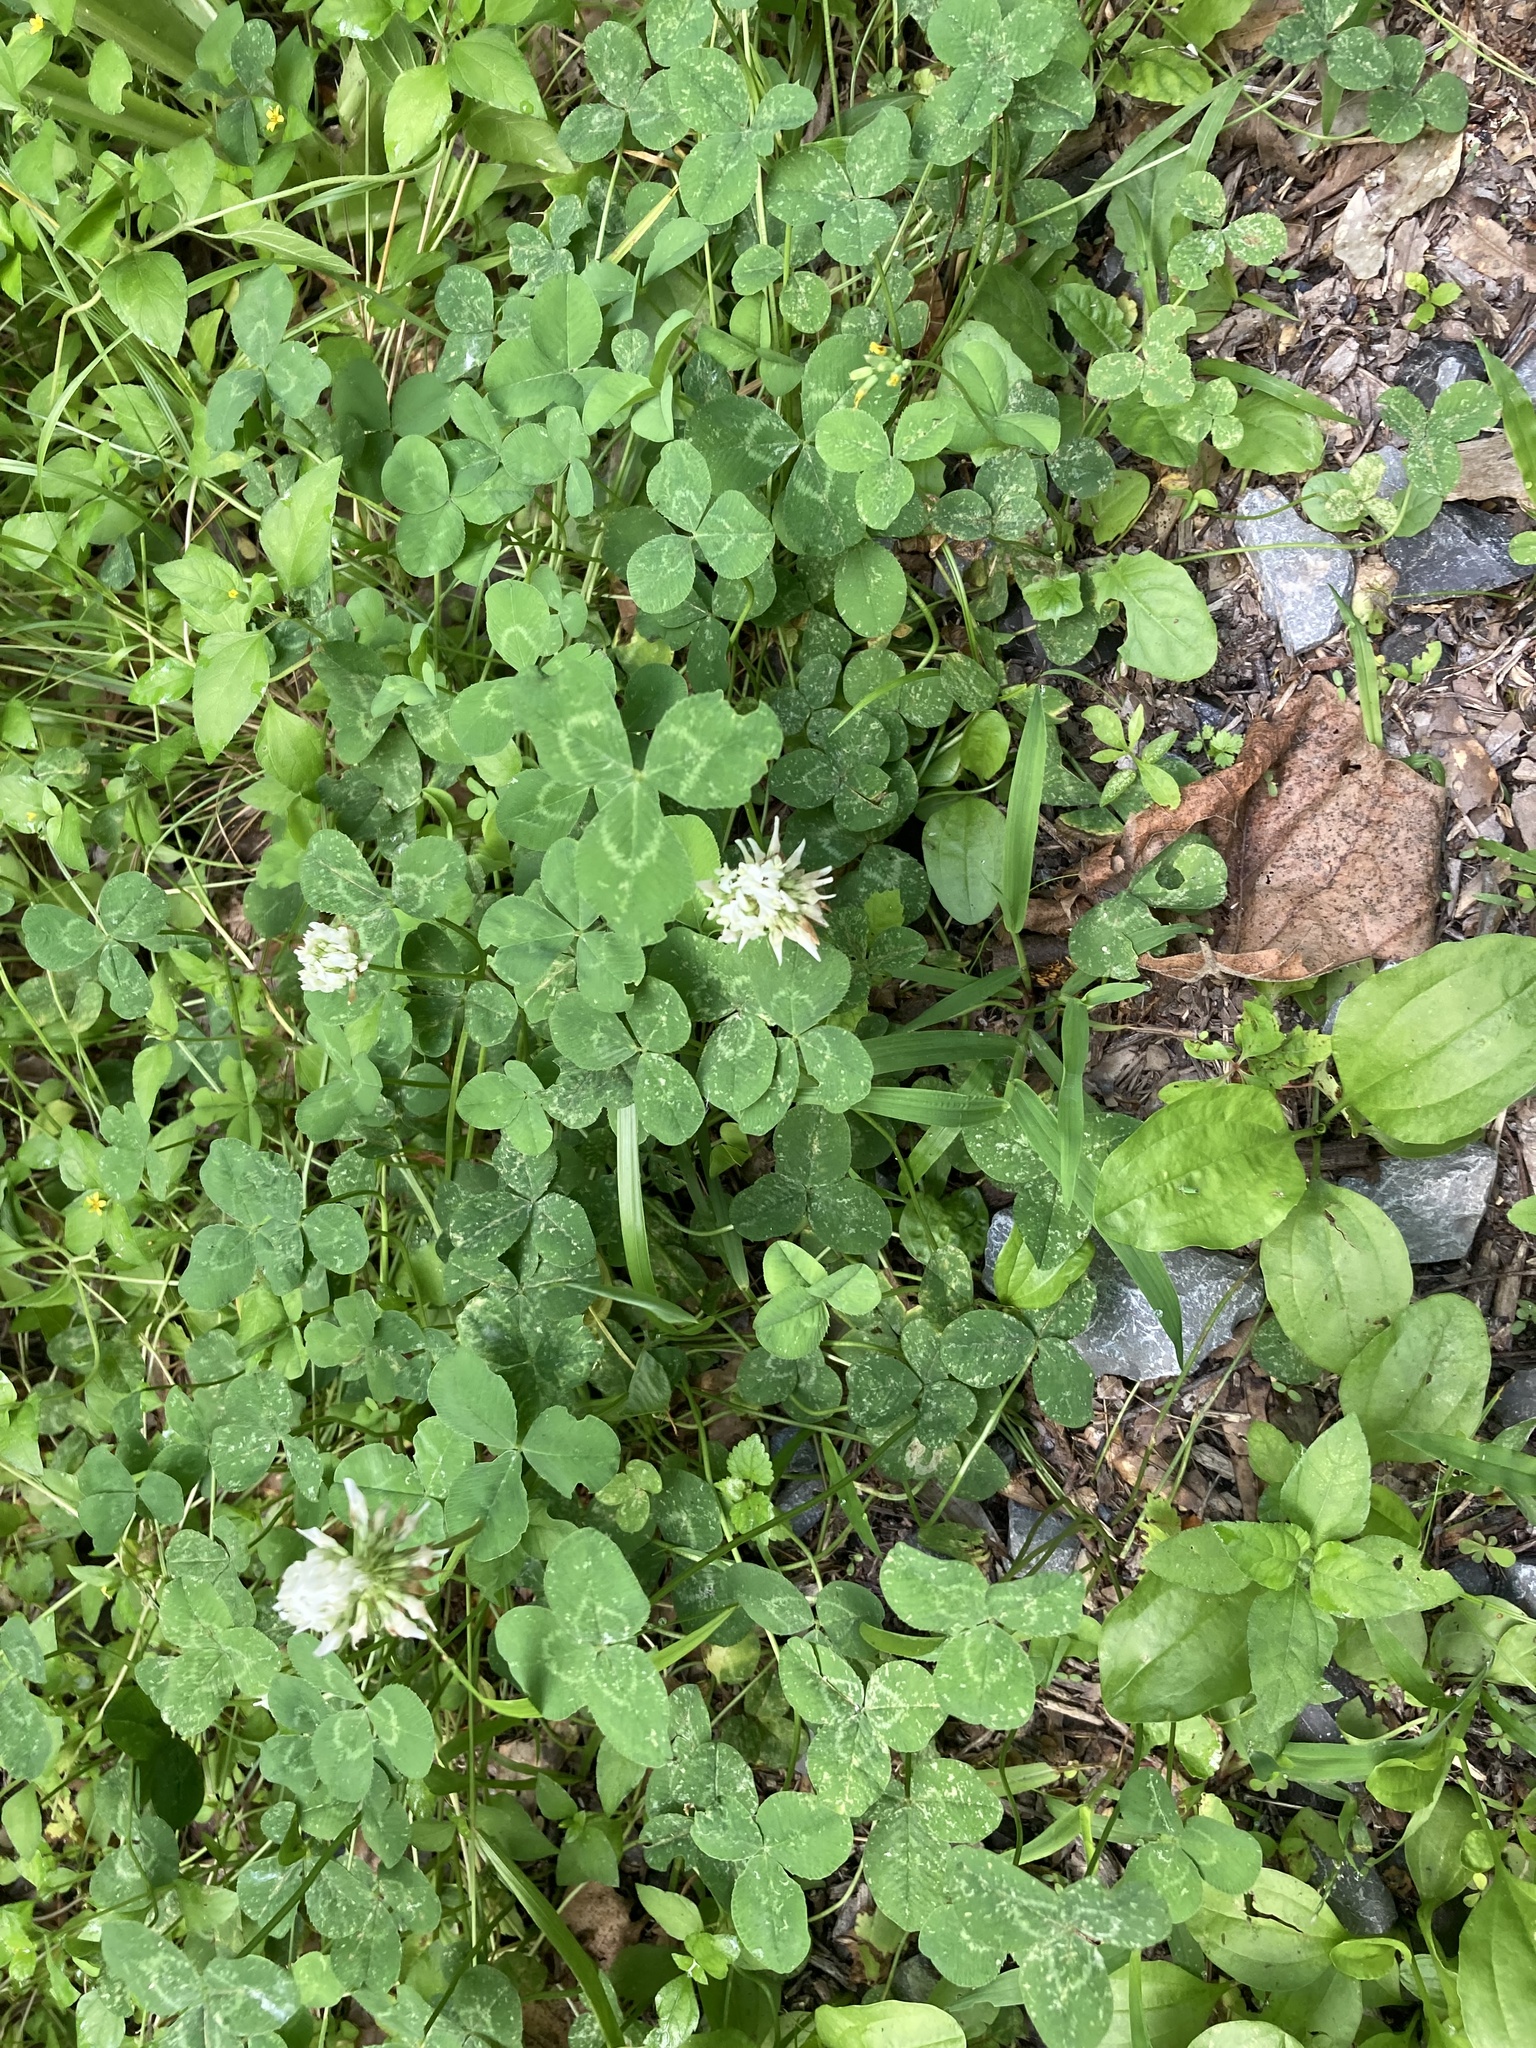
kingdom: Plantae
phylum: Tracheophyta
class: Magnoliopsida
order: Fabales
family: Fabaceae
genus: Trifolium
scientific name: Trifolium repens
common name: White clover
